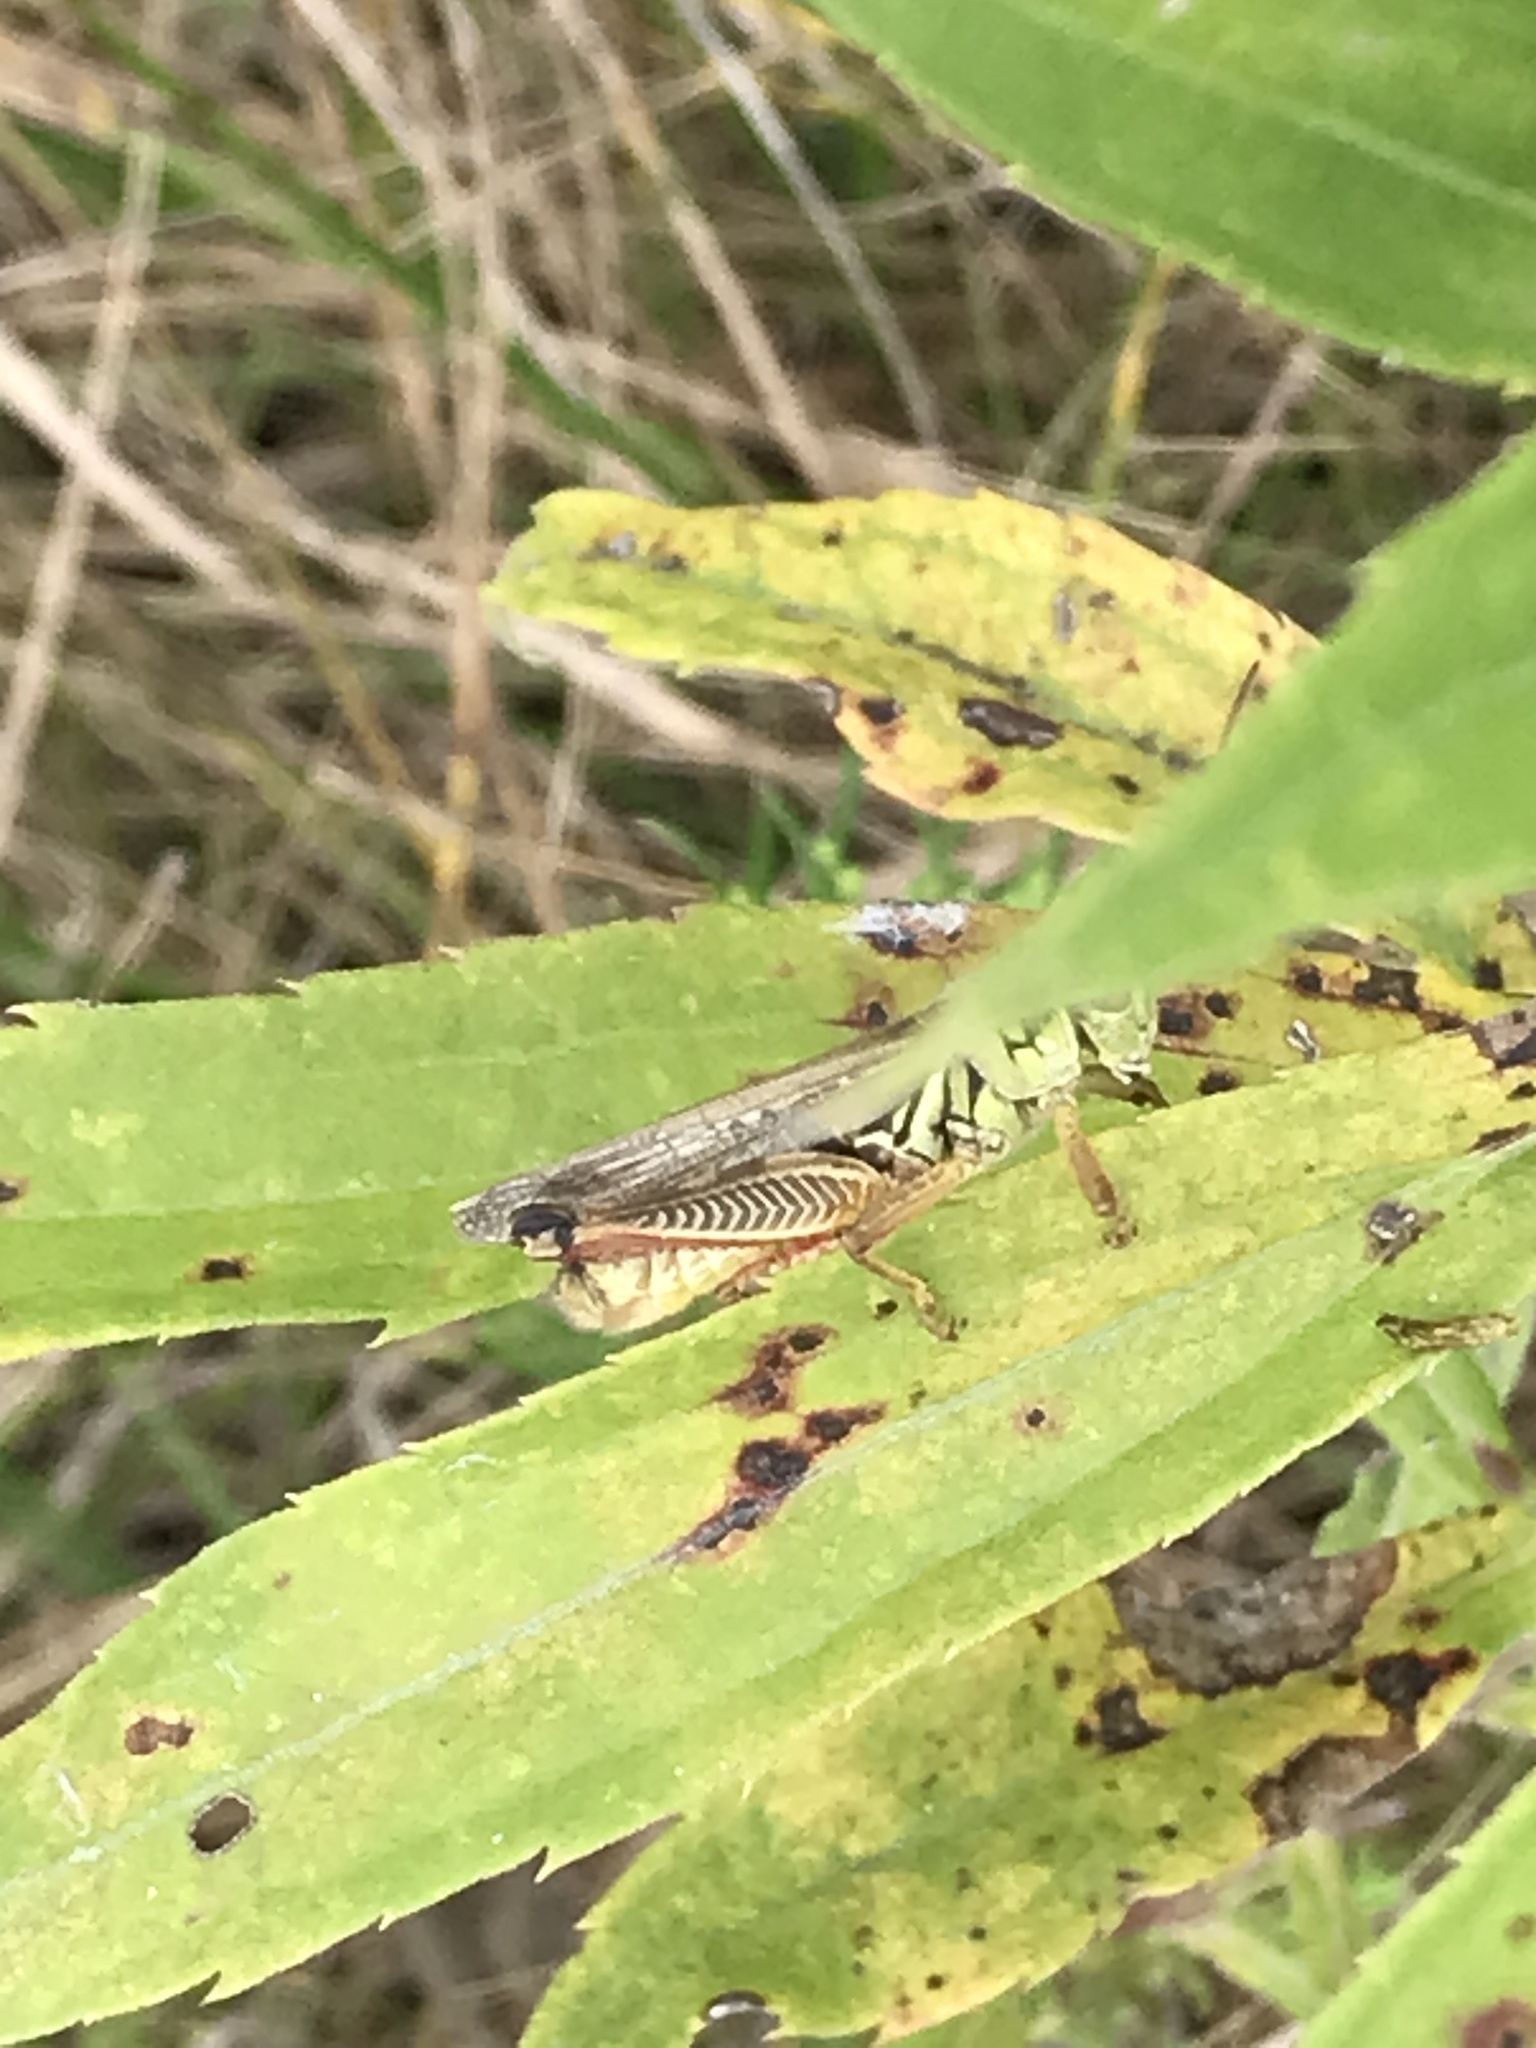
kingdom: Animalia
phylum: Arthropoda
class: Insecta
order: Orthoptera
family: Acrididae
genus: Melanoplus
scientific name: Melanoplus femurrubrum
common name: Red-legged grasshopper
